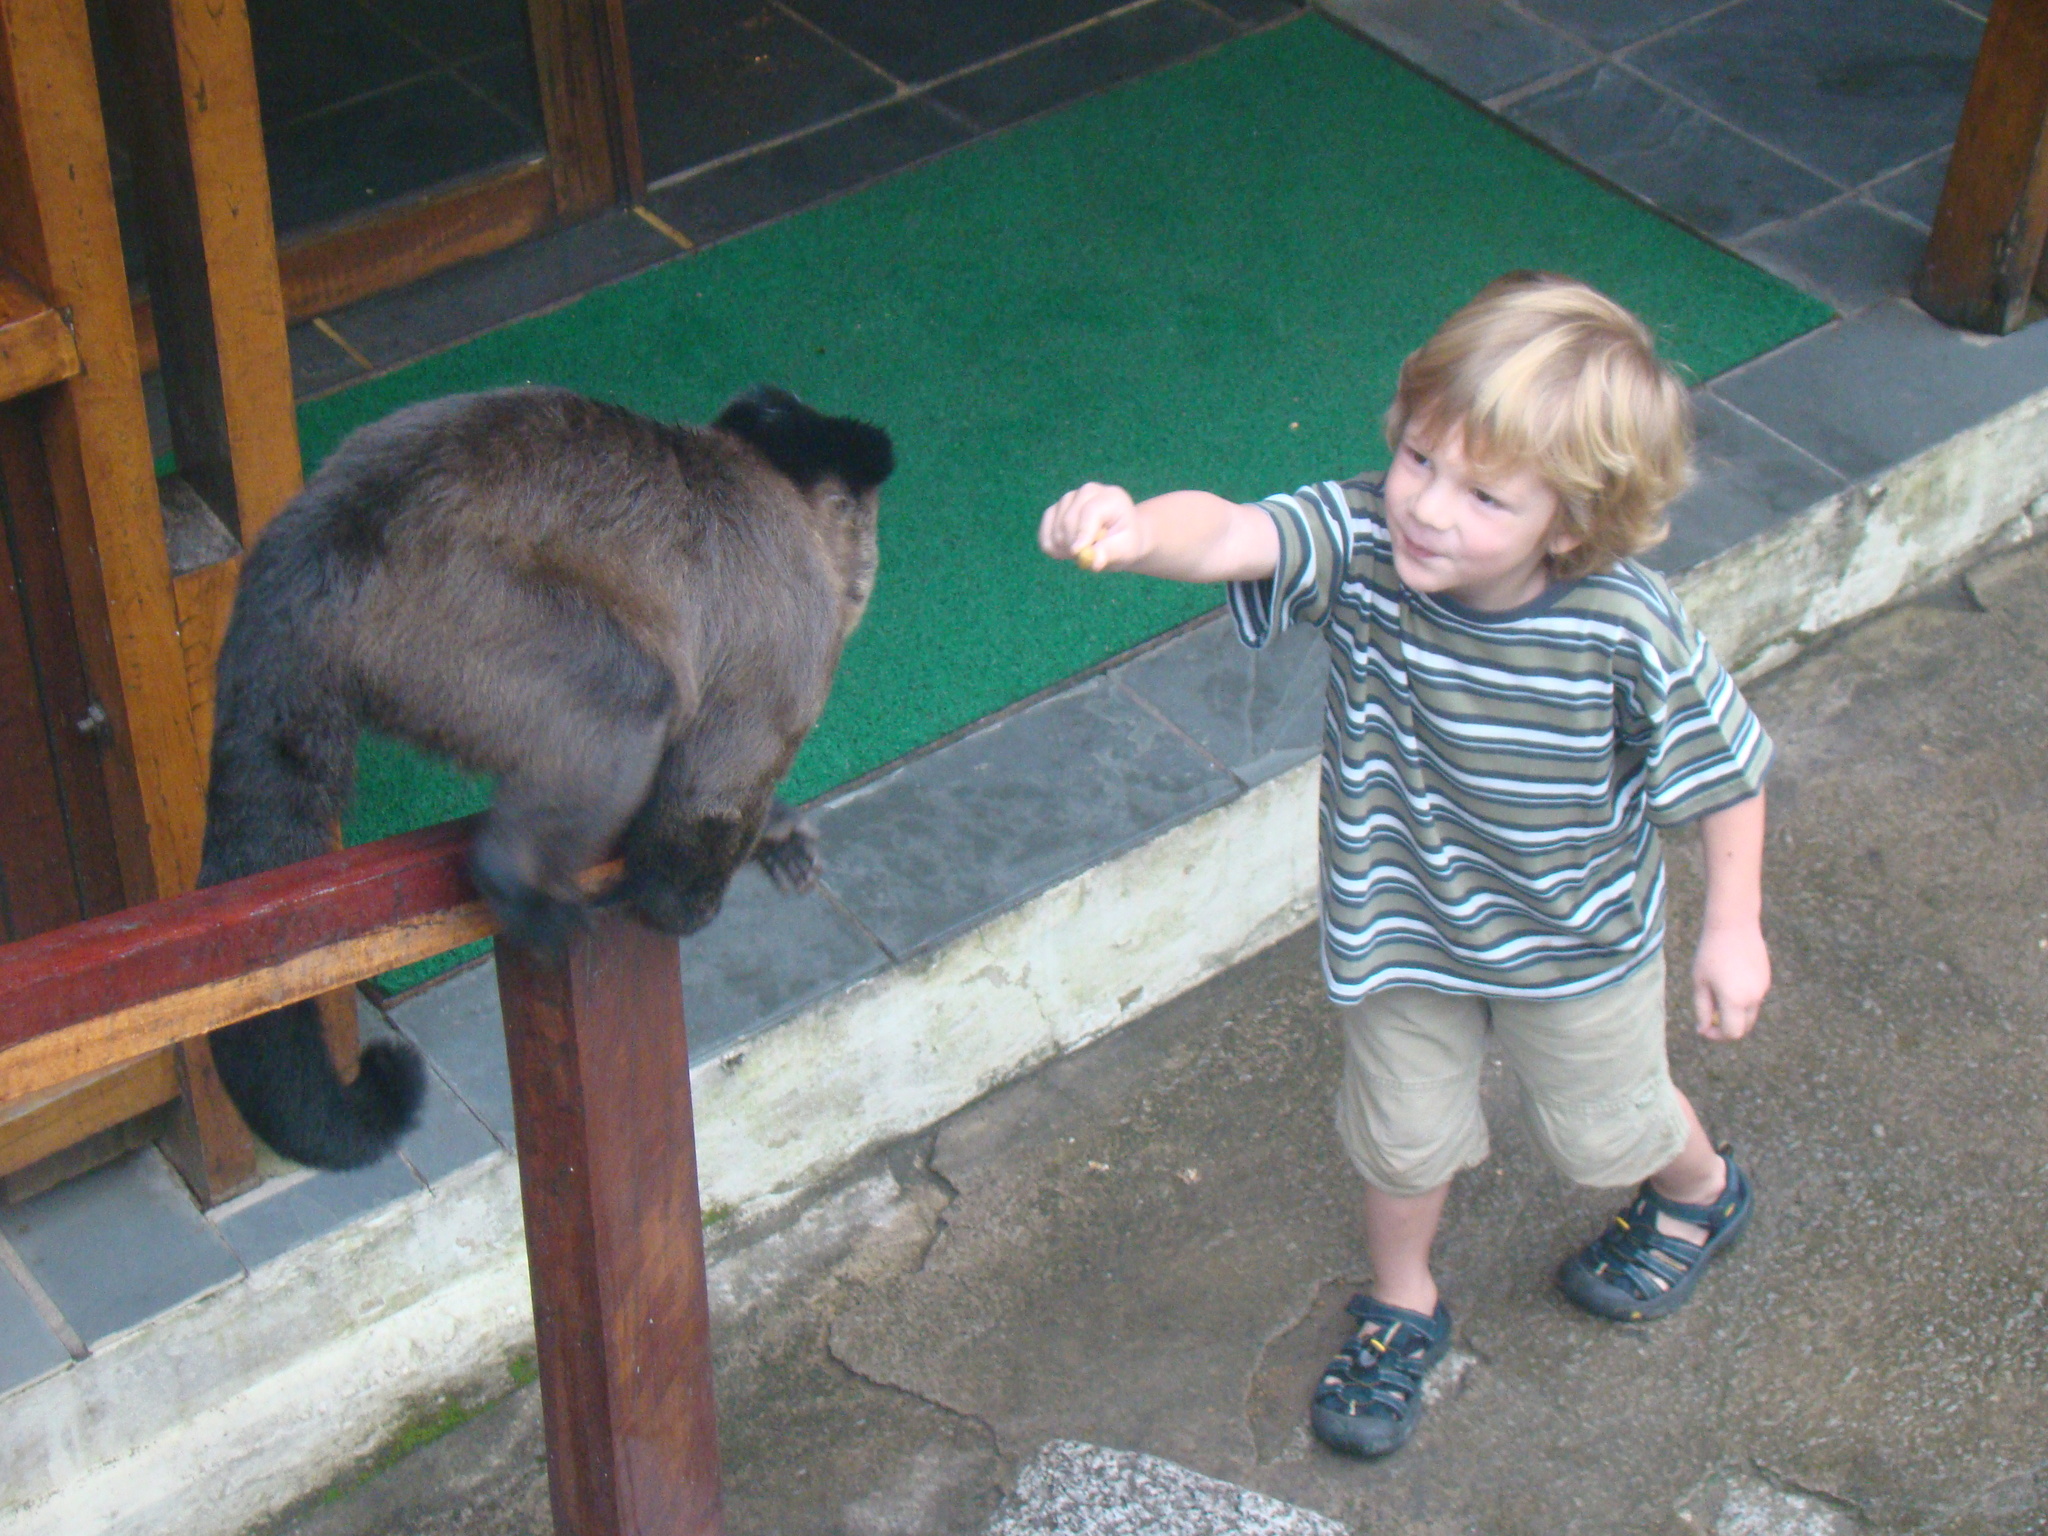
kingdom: Animalia
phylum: Chordata
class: Mammalia
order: Primates
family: Cebidae
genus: Sapajus
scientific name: Sapajus nigritus
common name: Black capuchin
